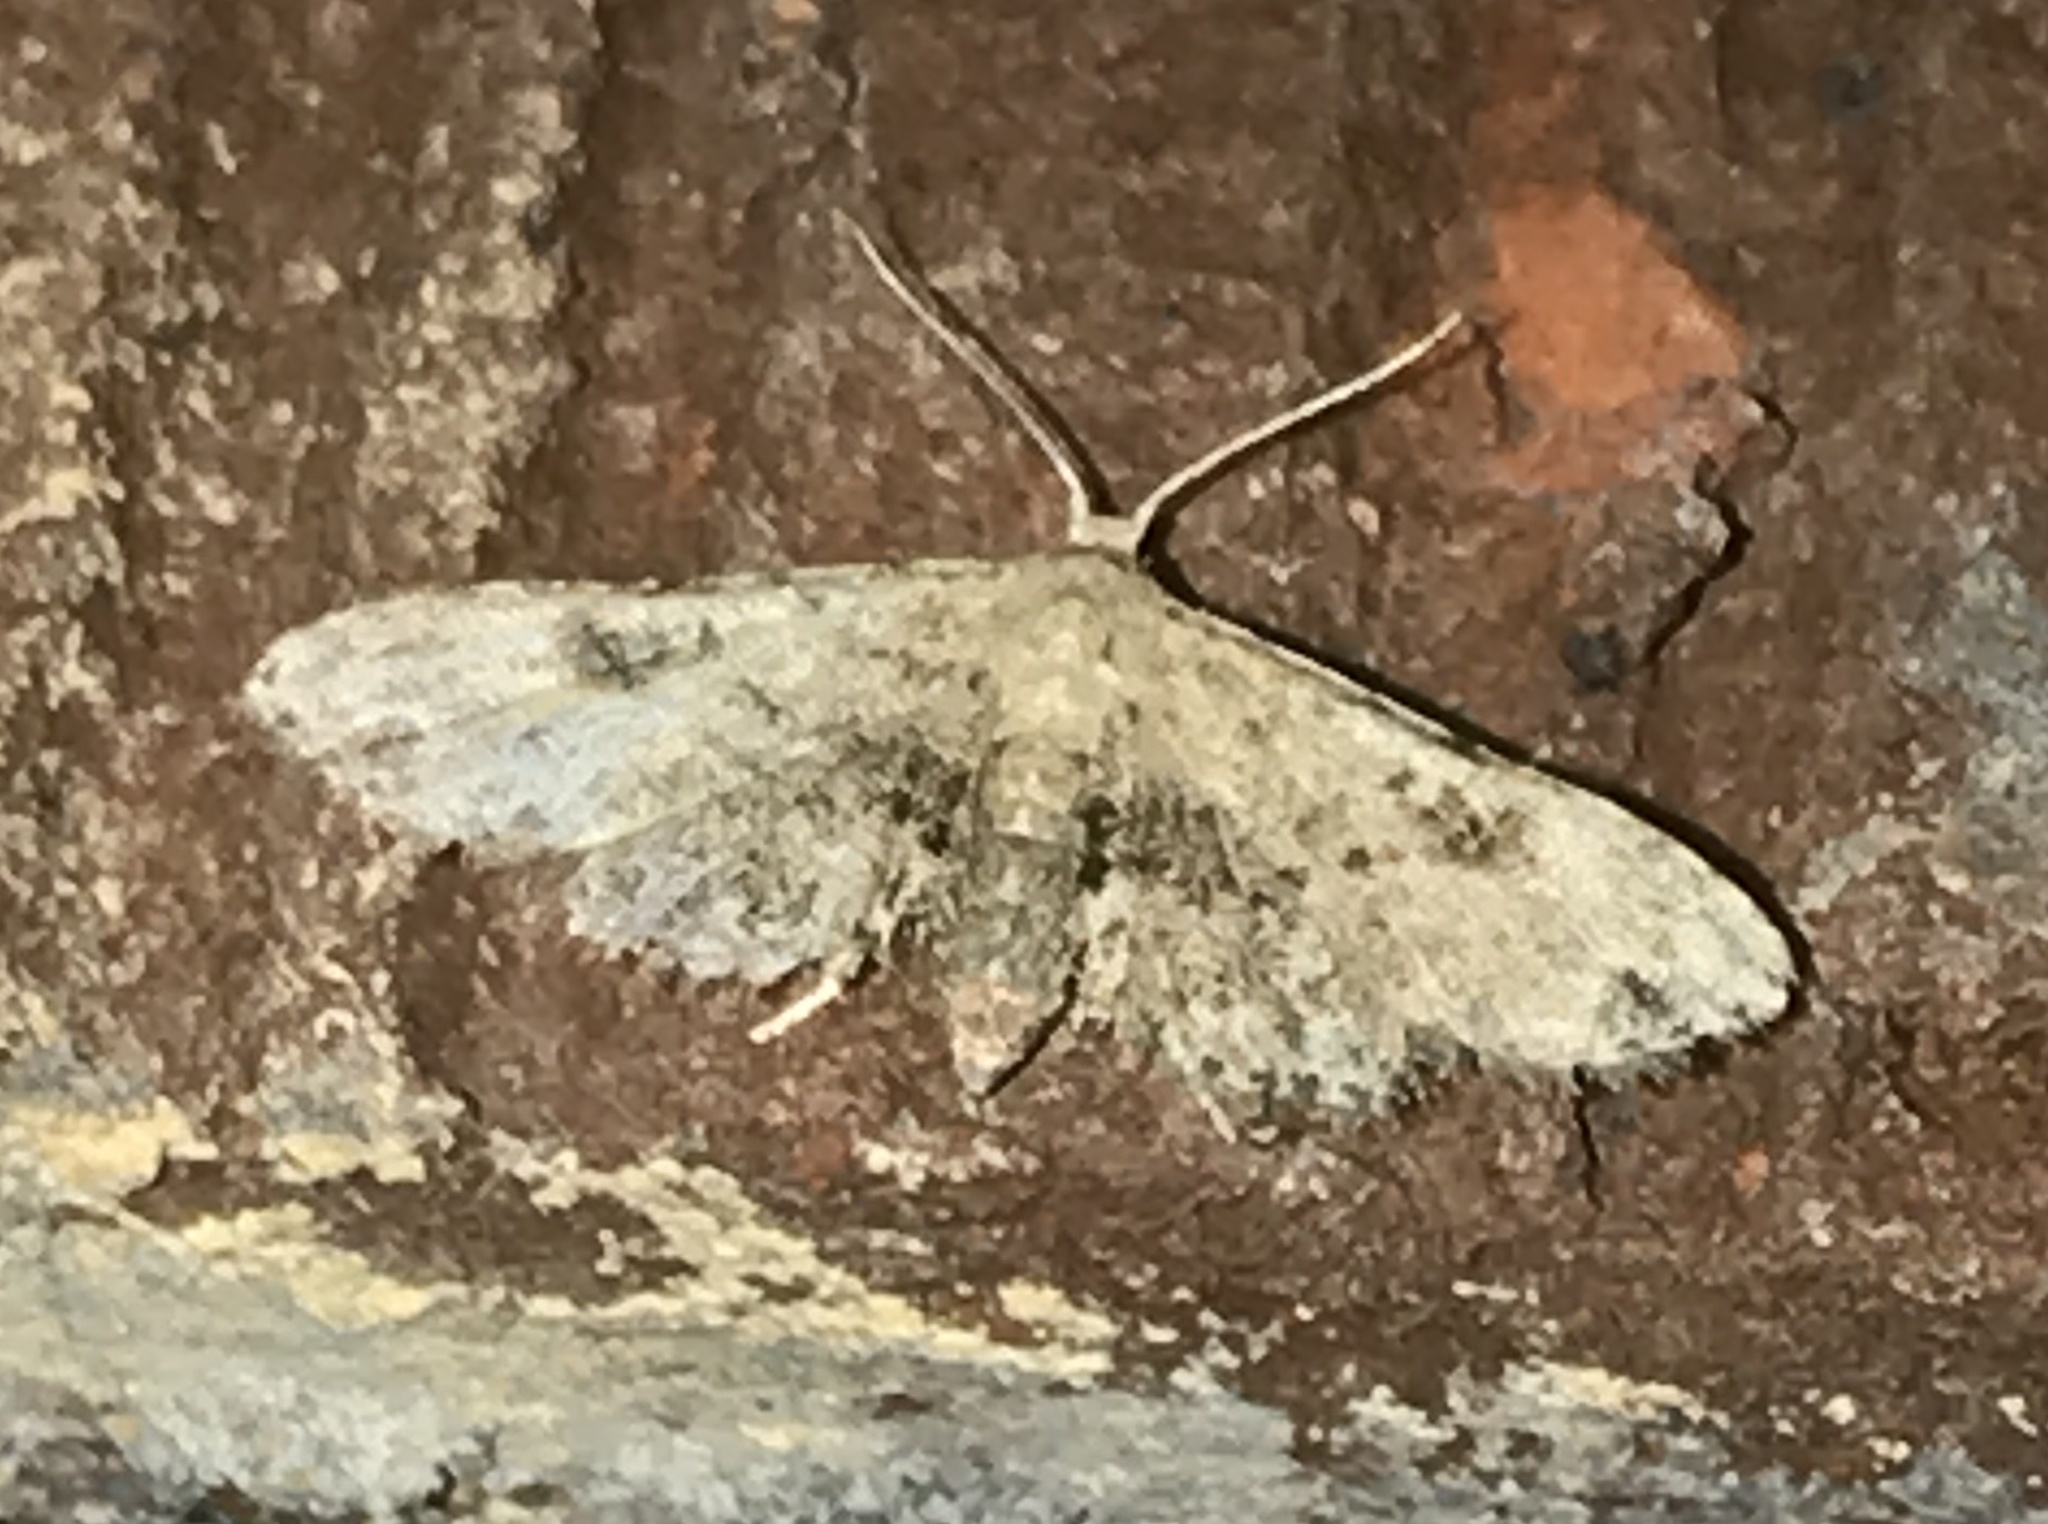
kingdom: Animalia
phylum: Arthropoda
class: Insecta
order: Lepidoptera
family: Erebidae
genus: Sigela
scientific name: Sigela brauneata
